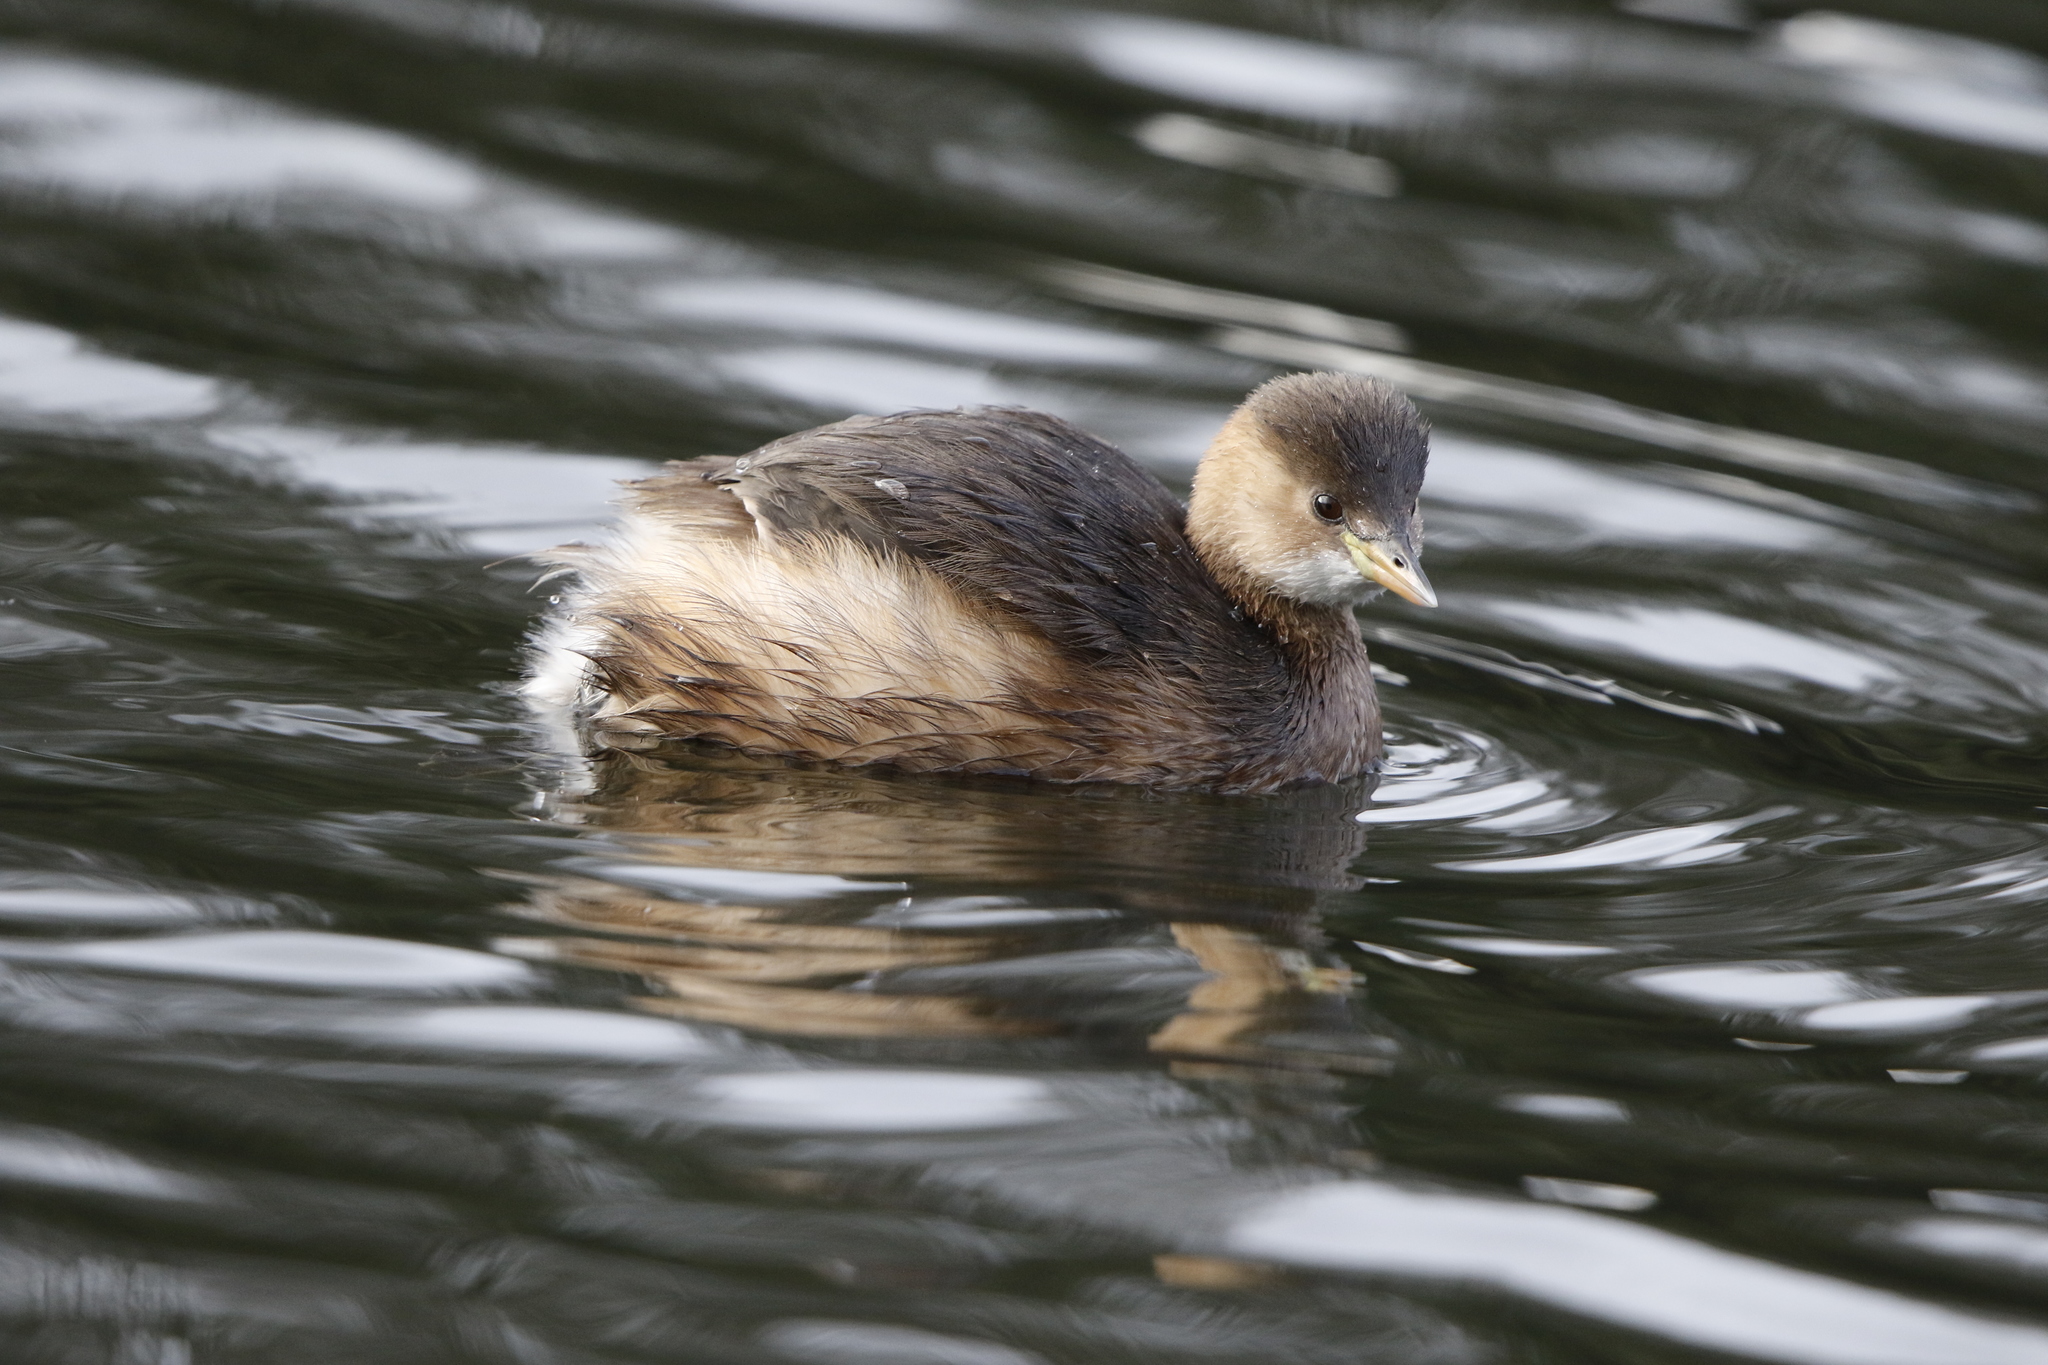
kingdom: Animalia
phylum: Chordata
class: Aves
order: Podicipediformes
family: Podicipedidae
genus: Tachybaptus
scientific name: Tachybaptus ruficollis
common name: Little grebe
